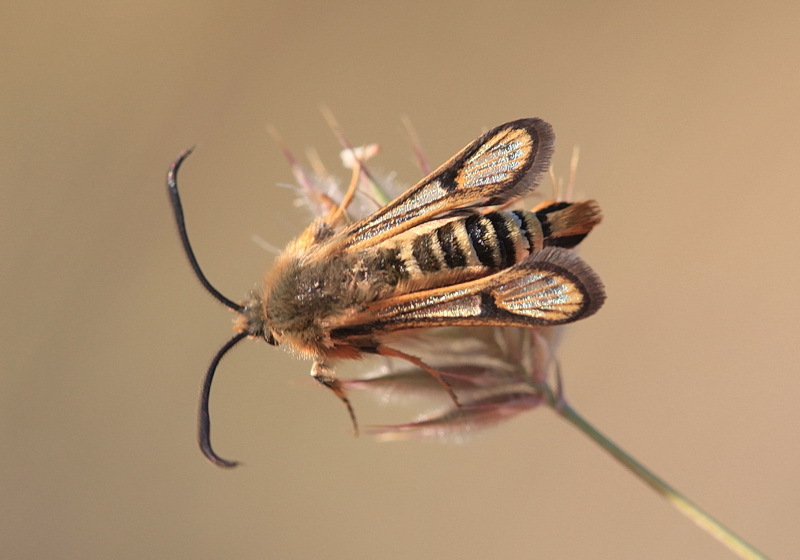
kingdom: Animalia
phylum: Arthropoda
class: Insecta
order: Lepidoptera
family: Sesiidae
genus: Bembecia
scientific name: Bembecia puella
